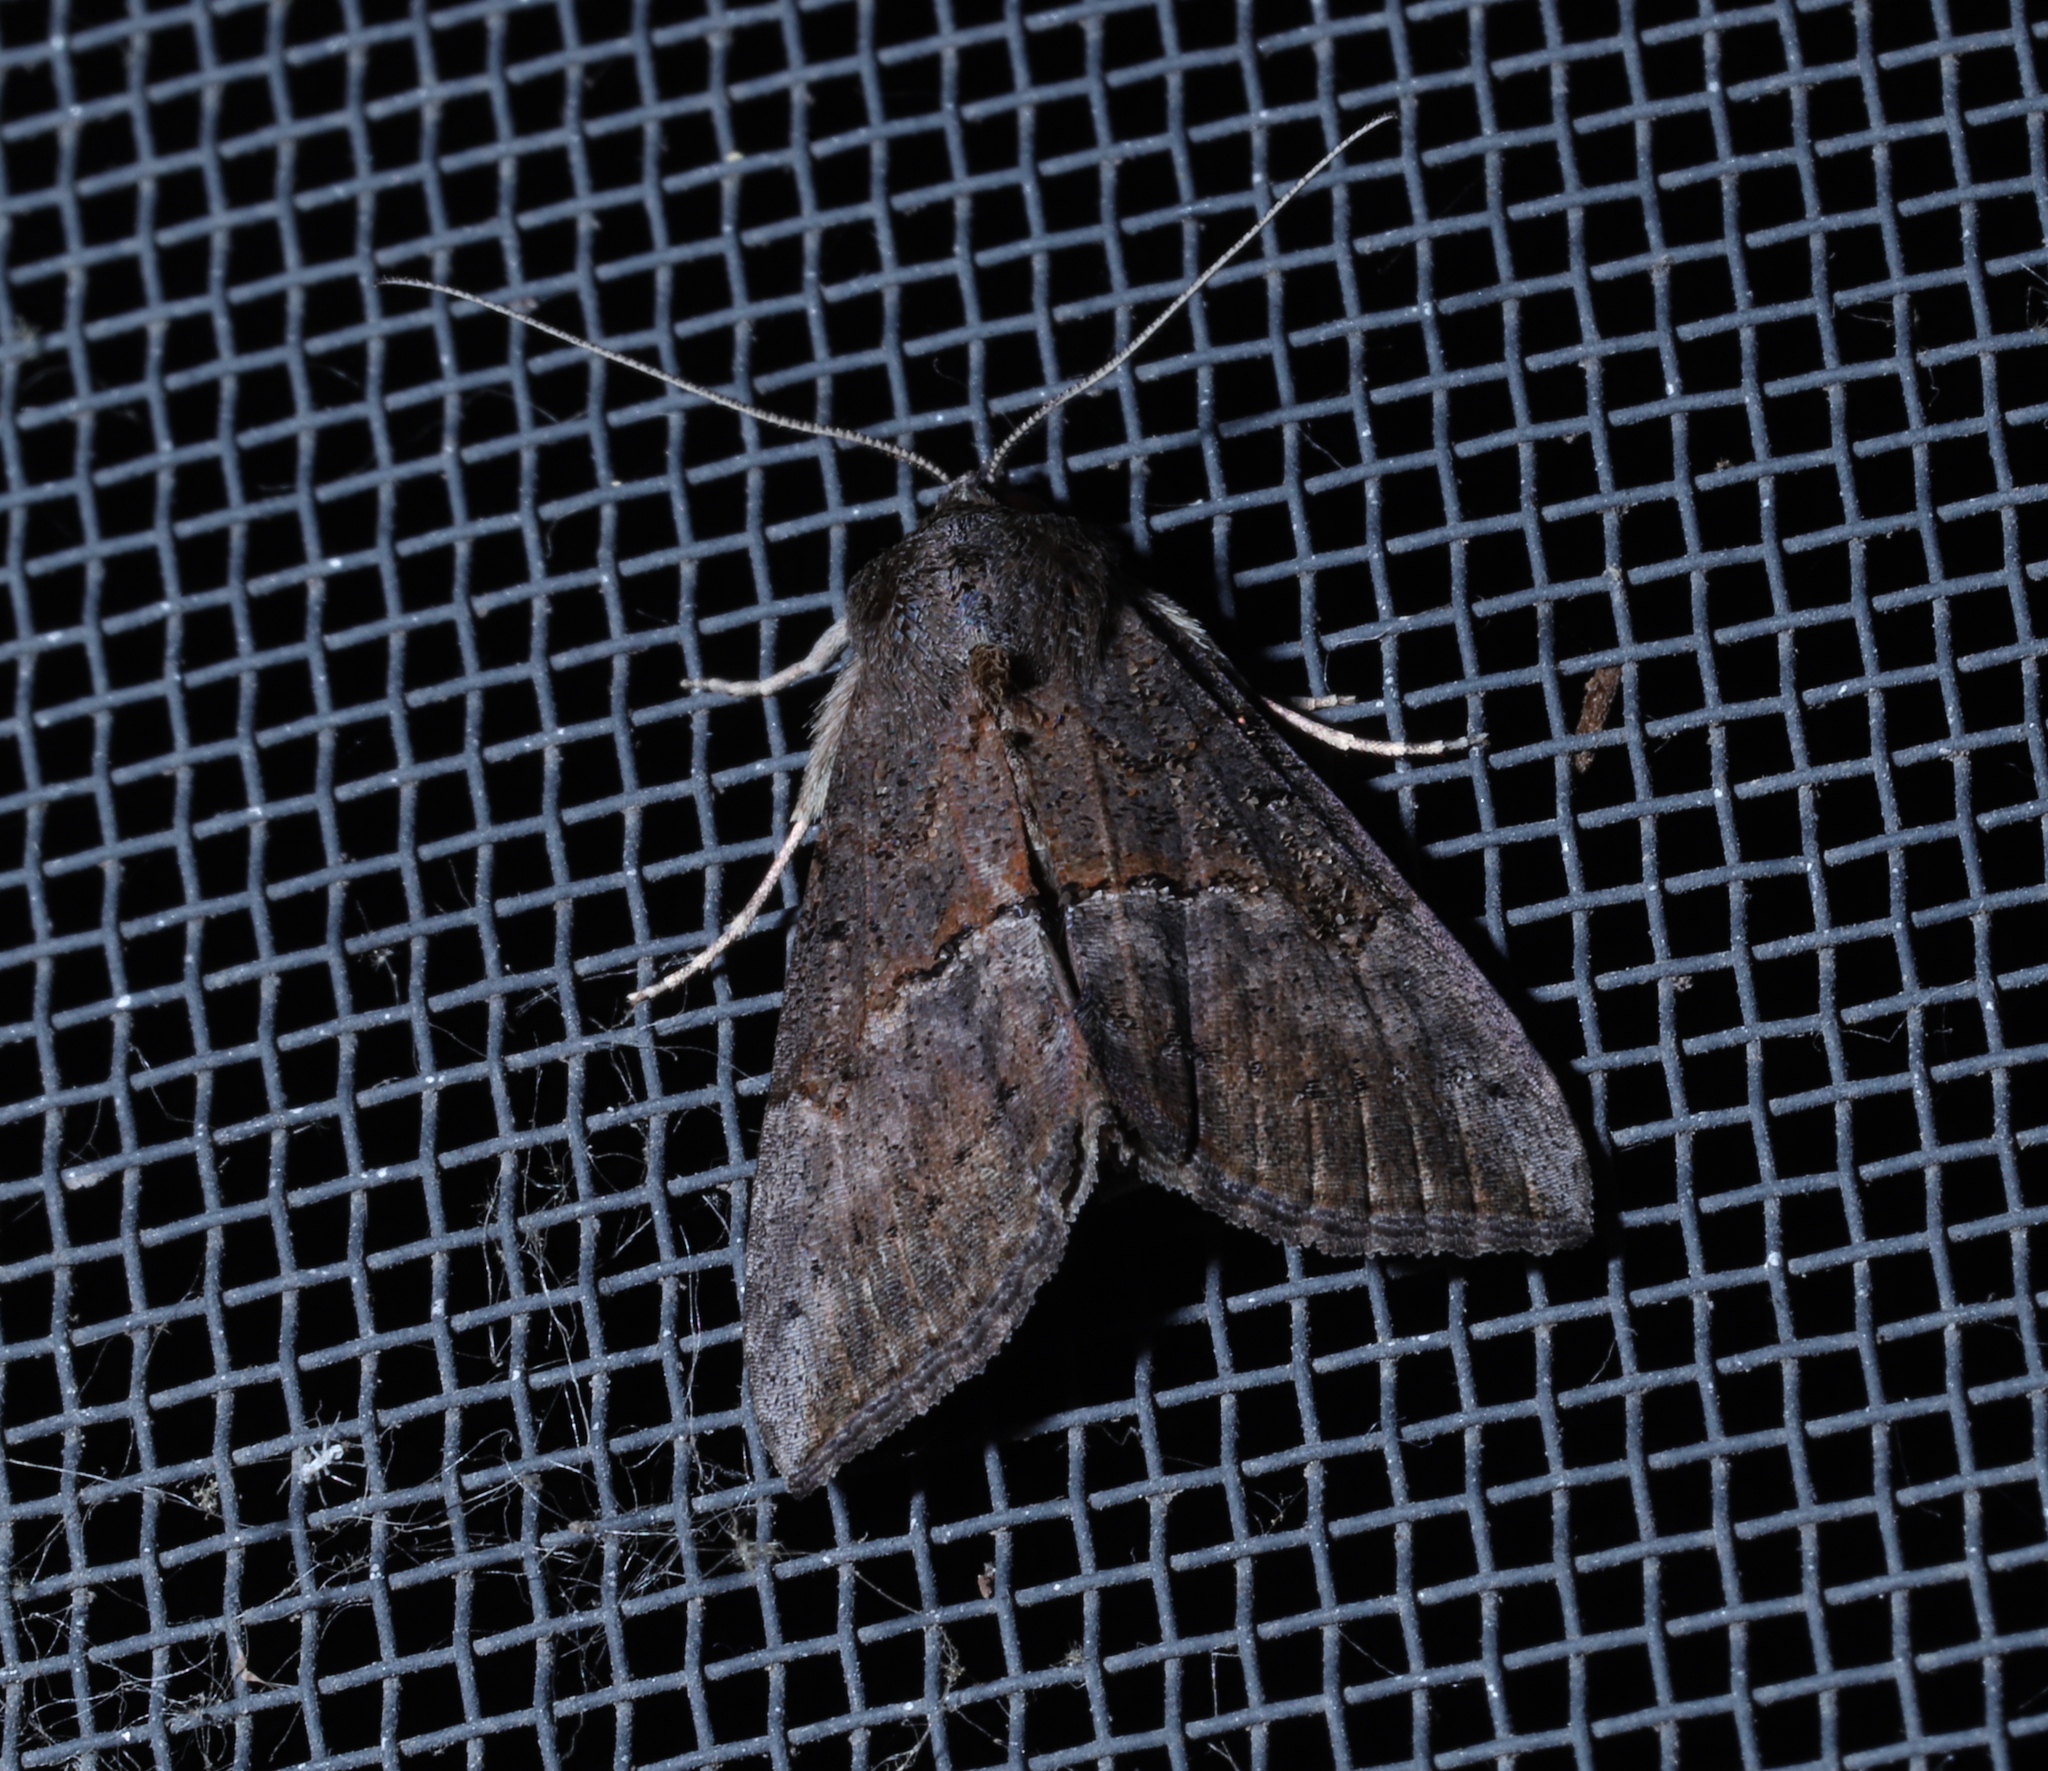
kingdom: Animalia
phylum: Arthropoda
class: Insecta
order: Lepidoptera
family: Erebidae
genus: Hypena
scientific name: Hypena scabra
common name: Green cloverworm
